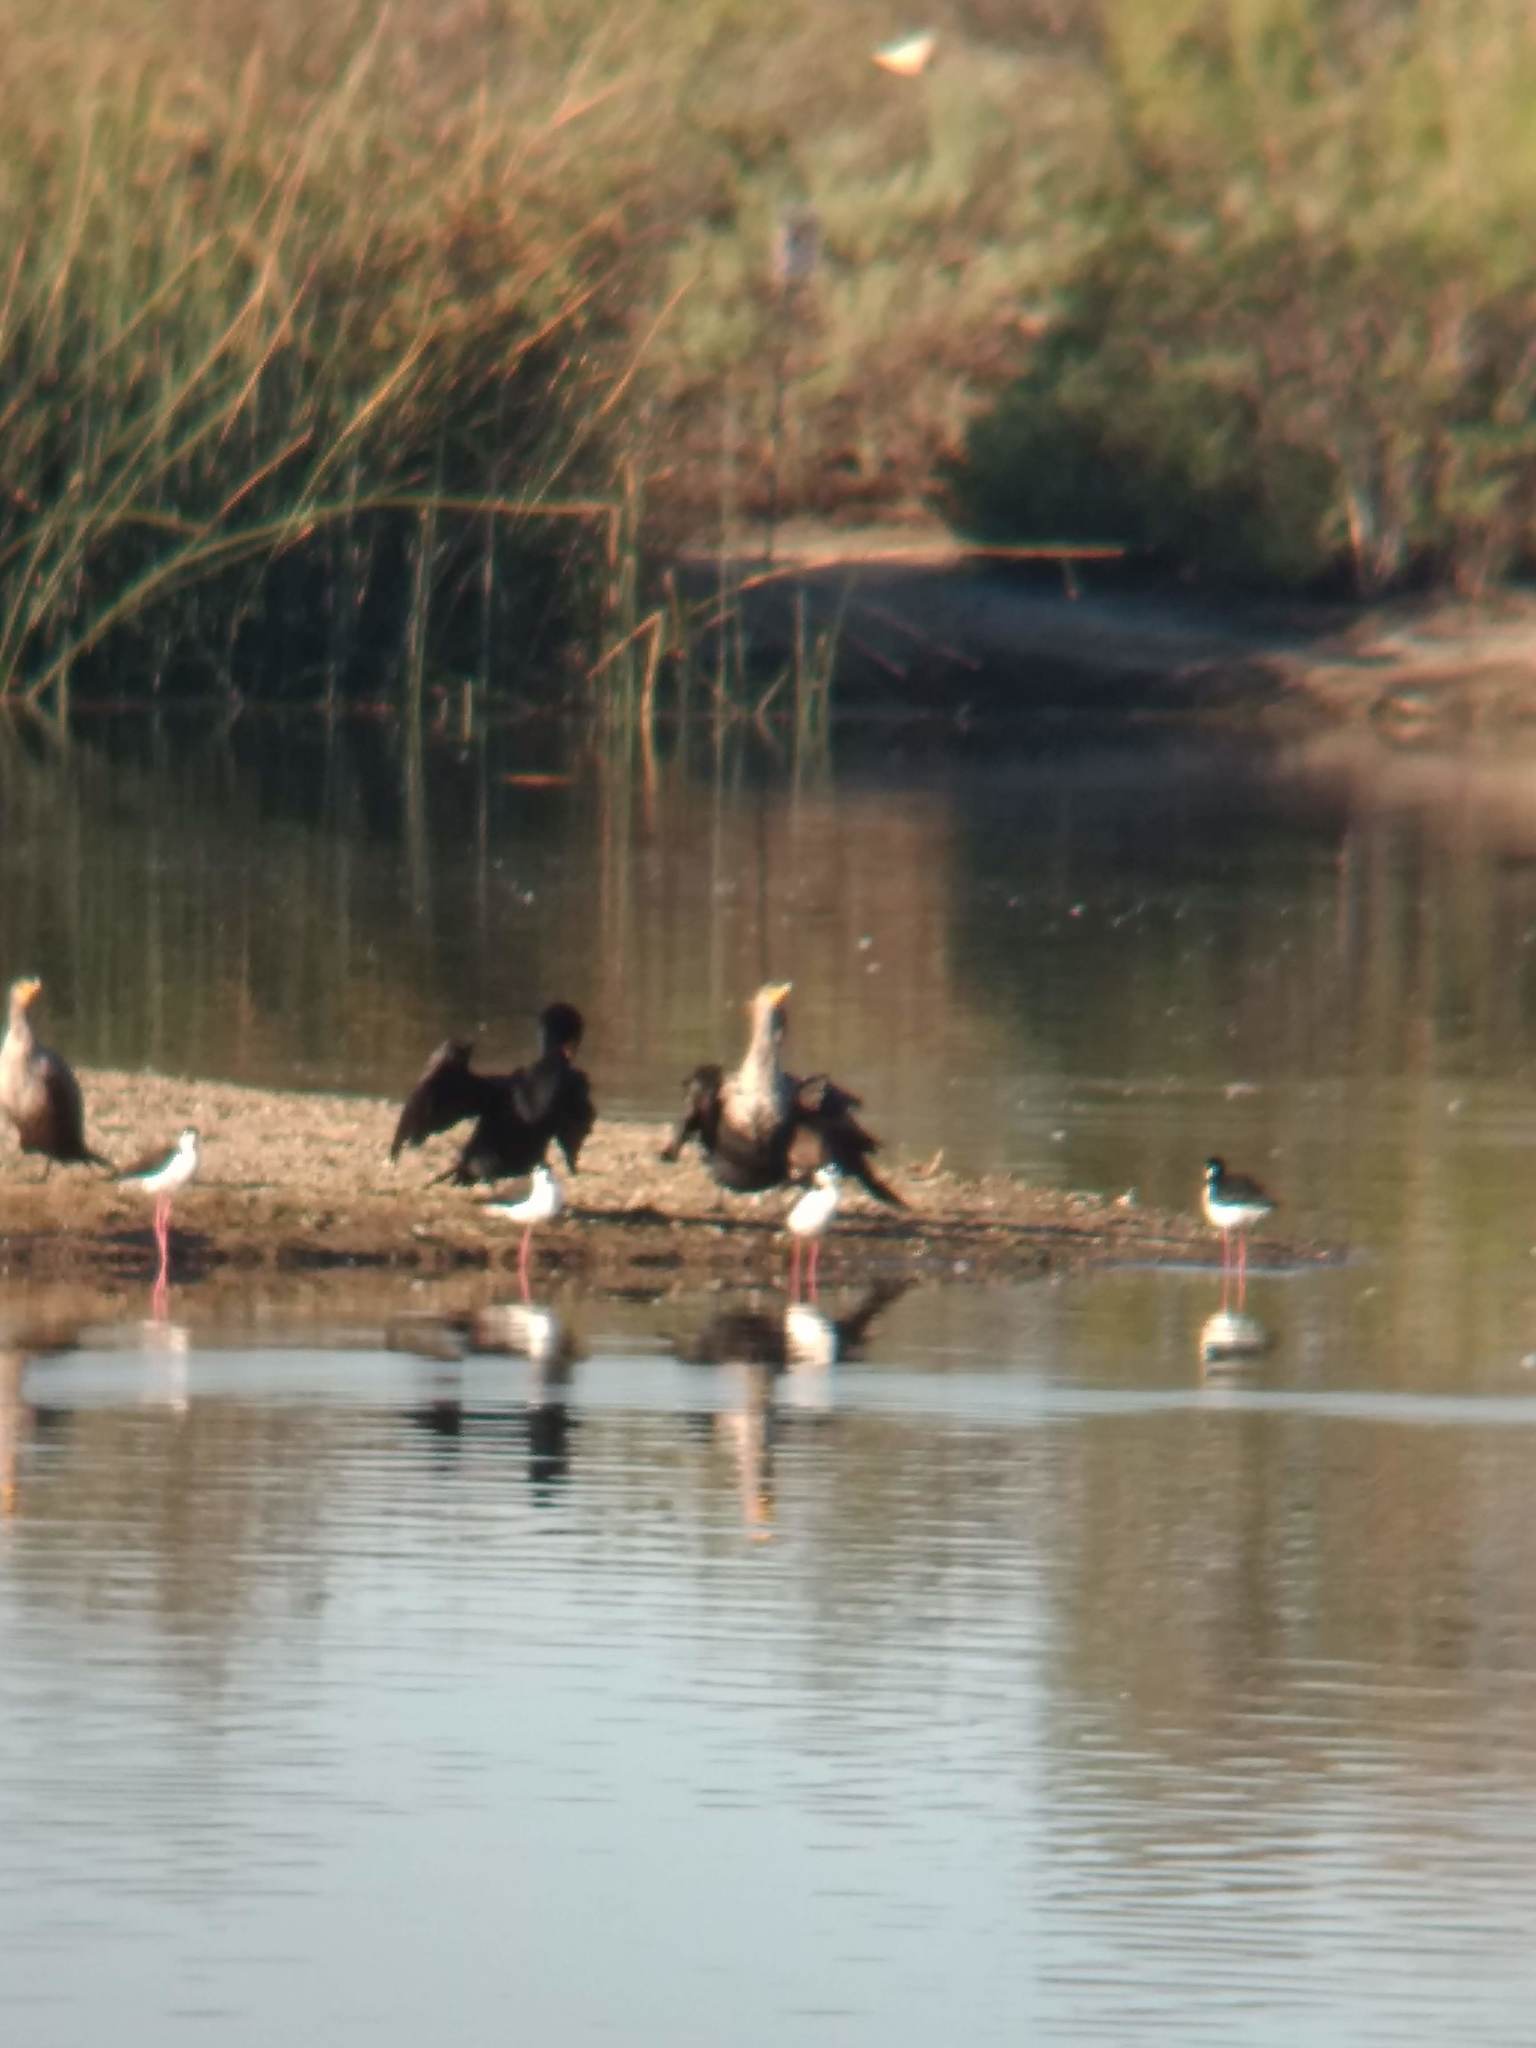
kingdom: Animalia
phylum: Chordata
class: Aves
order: Suliformes
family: Phalacrocoracidae
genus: Phalacrocorax
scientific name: Phalacrocorax auritus
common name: Double-crested cormorant
